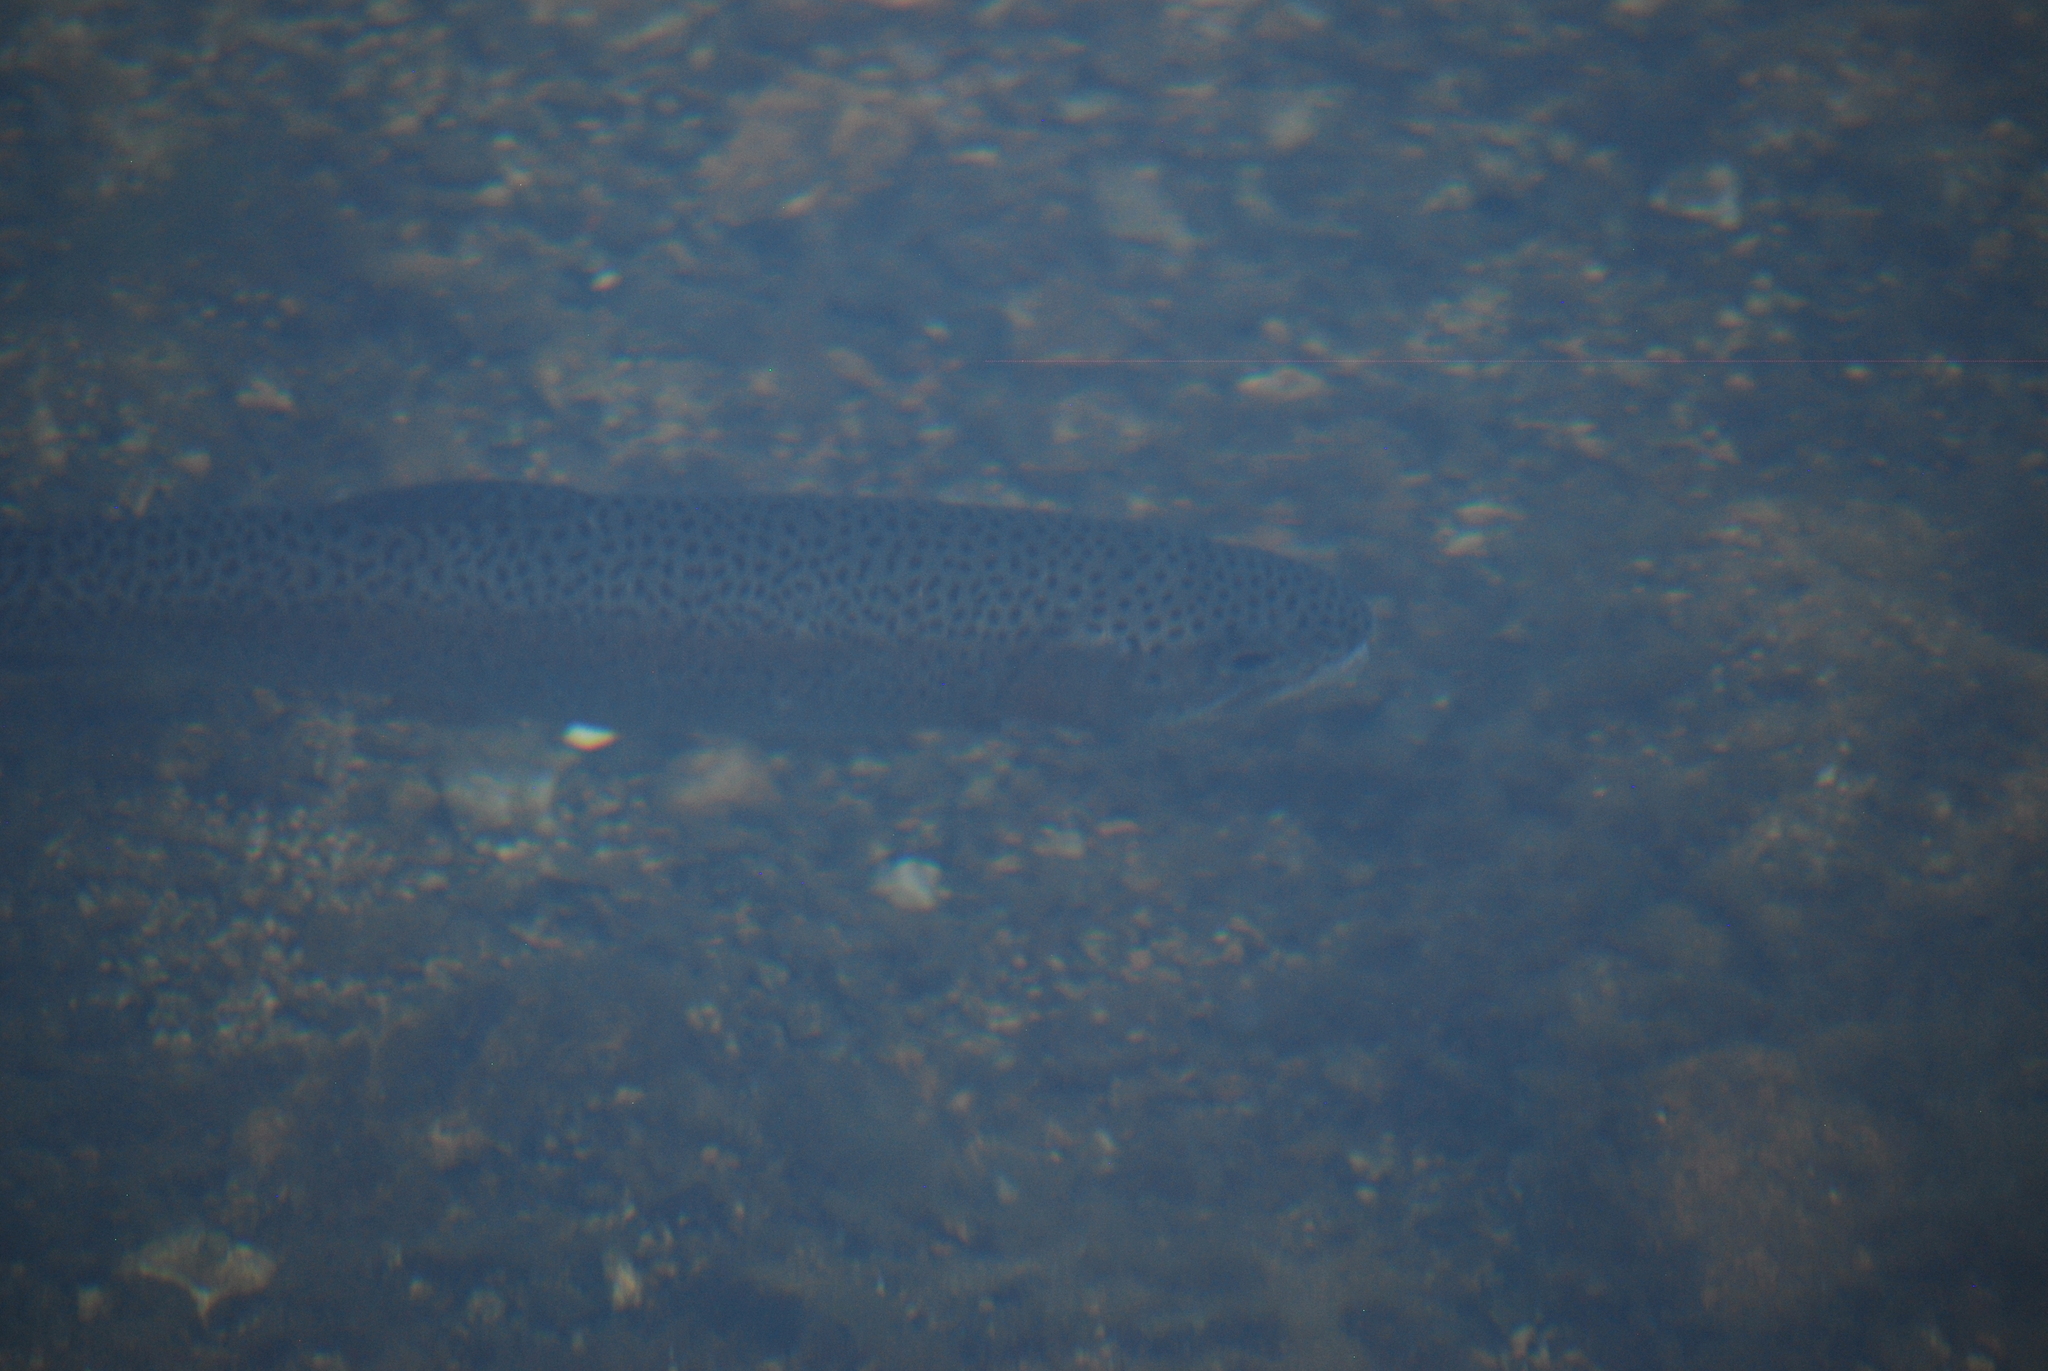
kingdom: Animalia
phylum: Chordata
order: Salmoniformes
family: Salmonidae
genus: Oncorhynchus
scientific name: Oncorhynchus mykiss
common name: Rainbow trout
